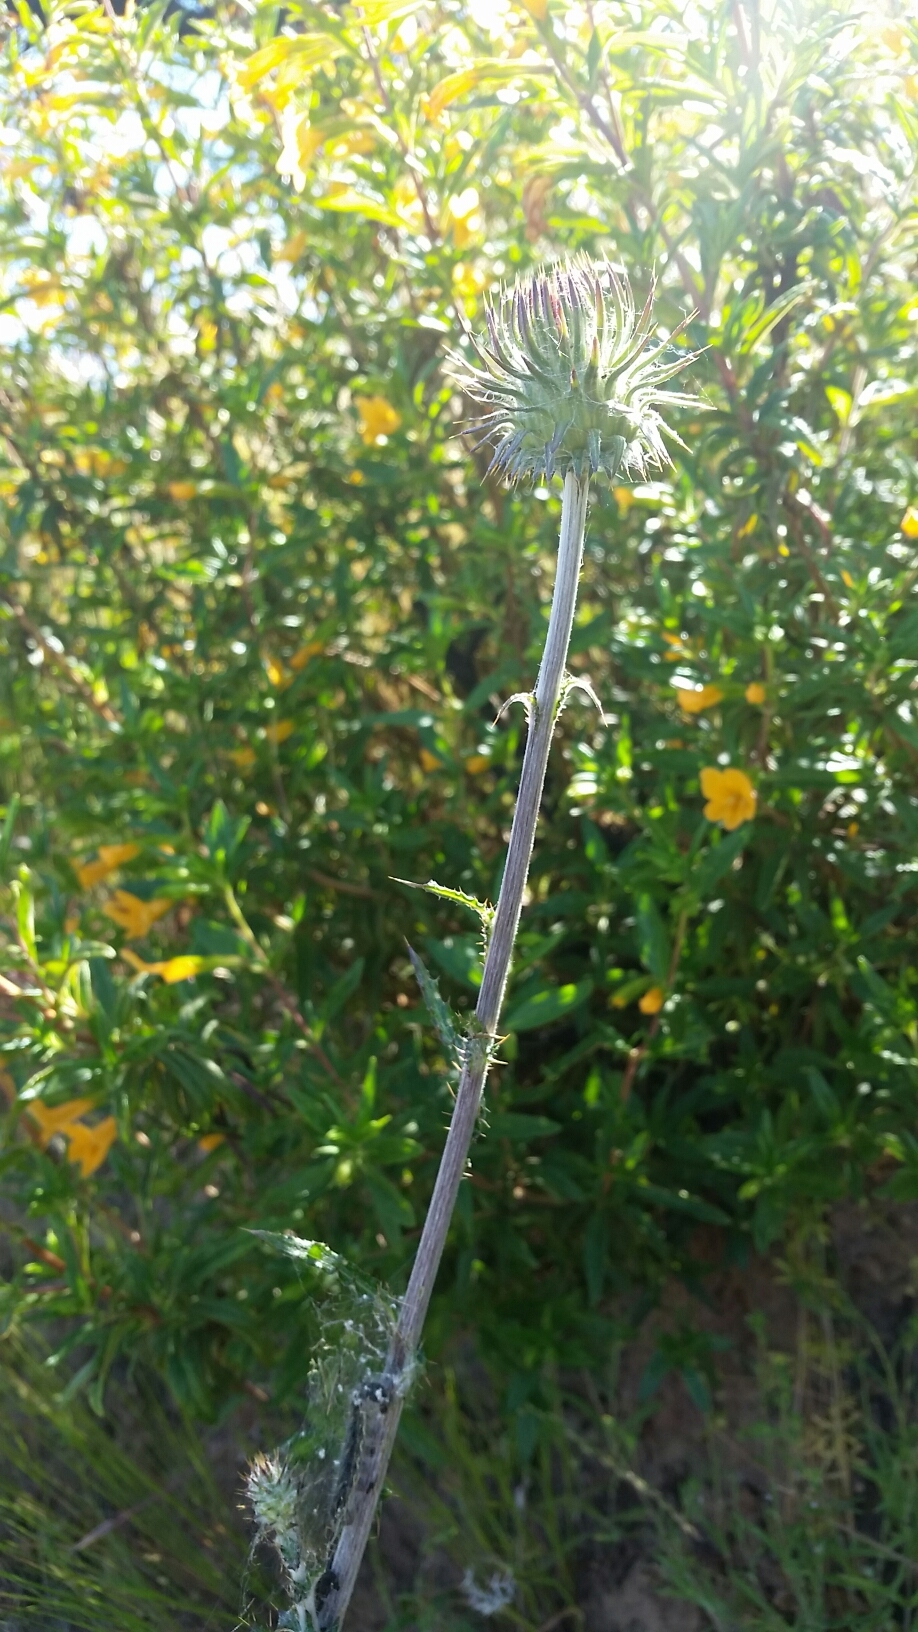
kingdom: Animalia
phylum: Arthropoda
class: Insecta
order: Lepidoptera
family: Nymphalidae
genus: Vanessa
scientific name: Vanessa cardui
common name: Painted lady
